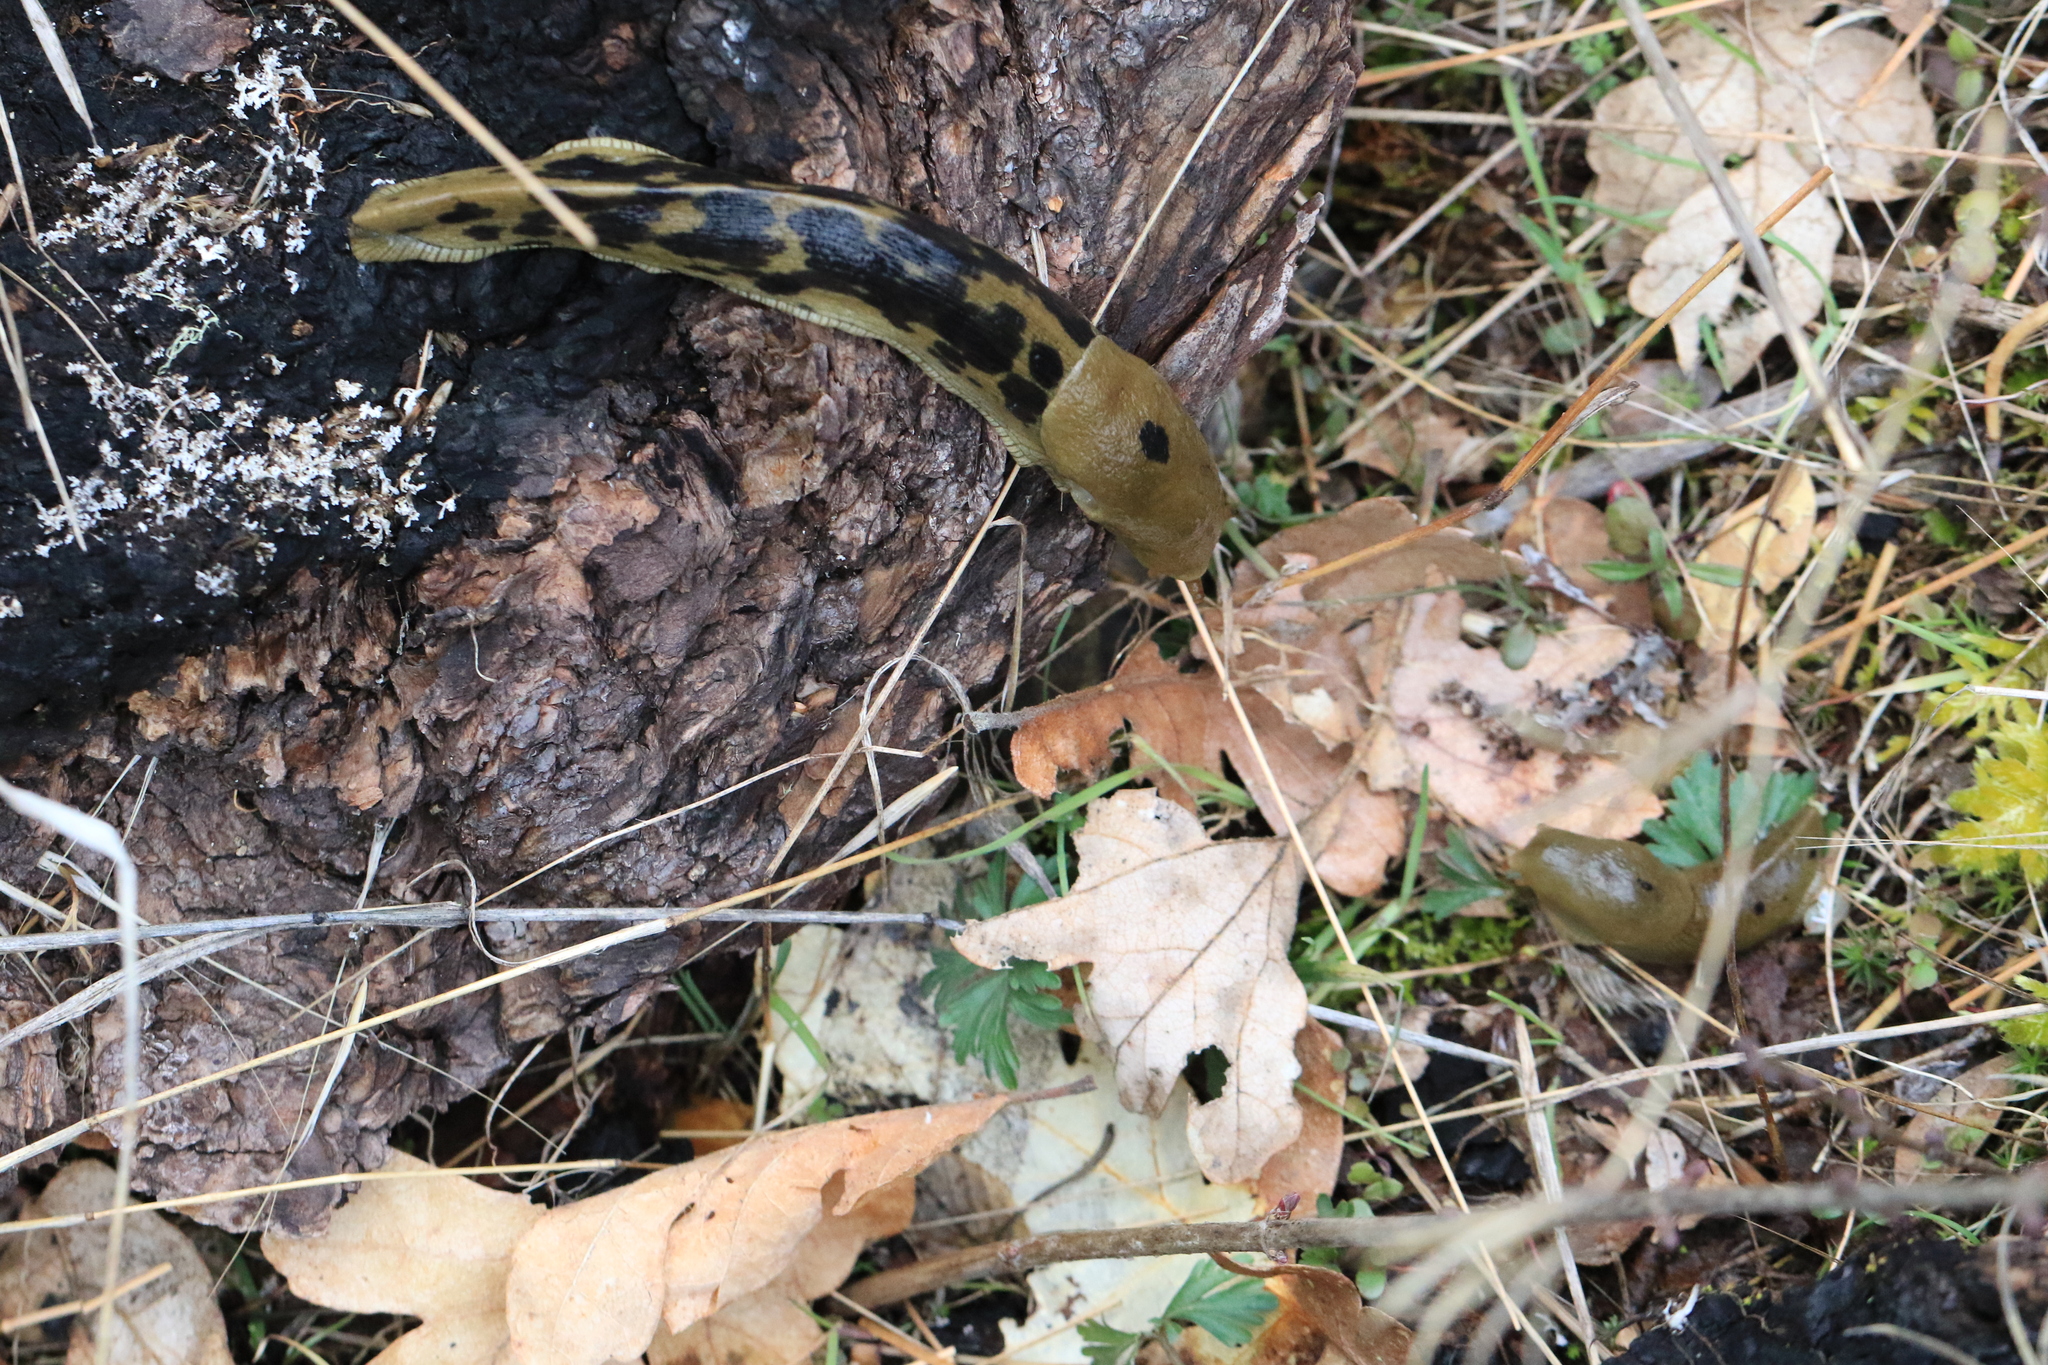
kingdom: Animalia
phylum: Mollusca
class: Gastropoda
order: Stylommatophora
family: Ariolimacidae
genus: Ariolimax
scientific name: Ariolimax columbianus
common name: Pacific banana slug
